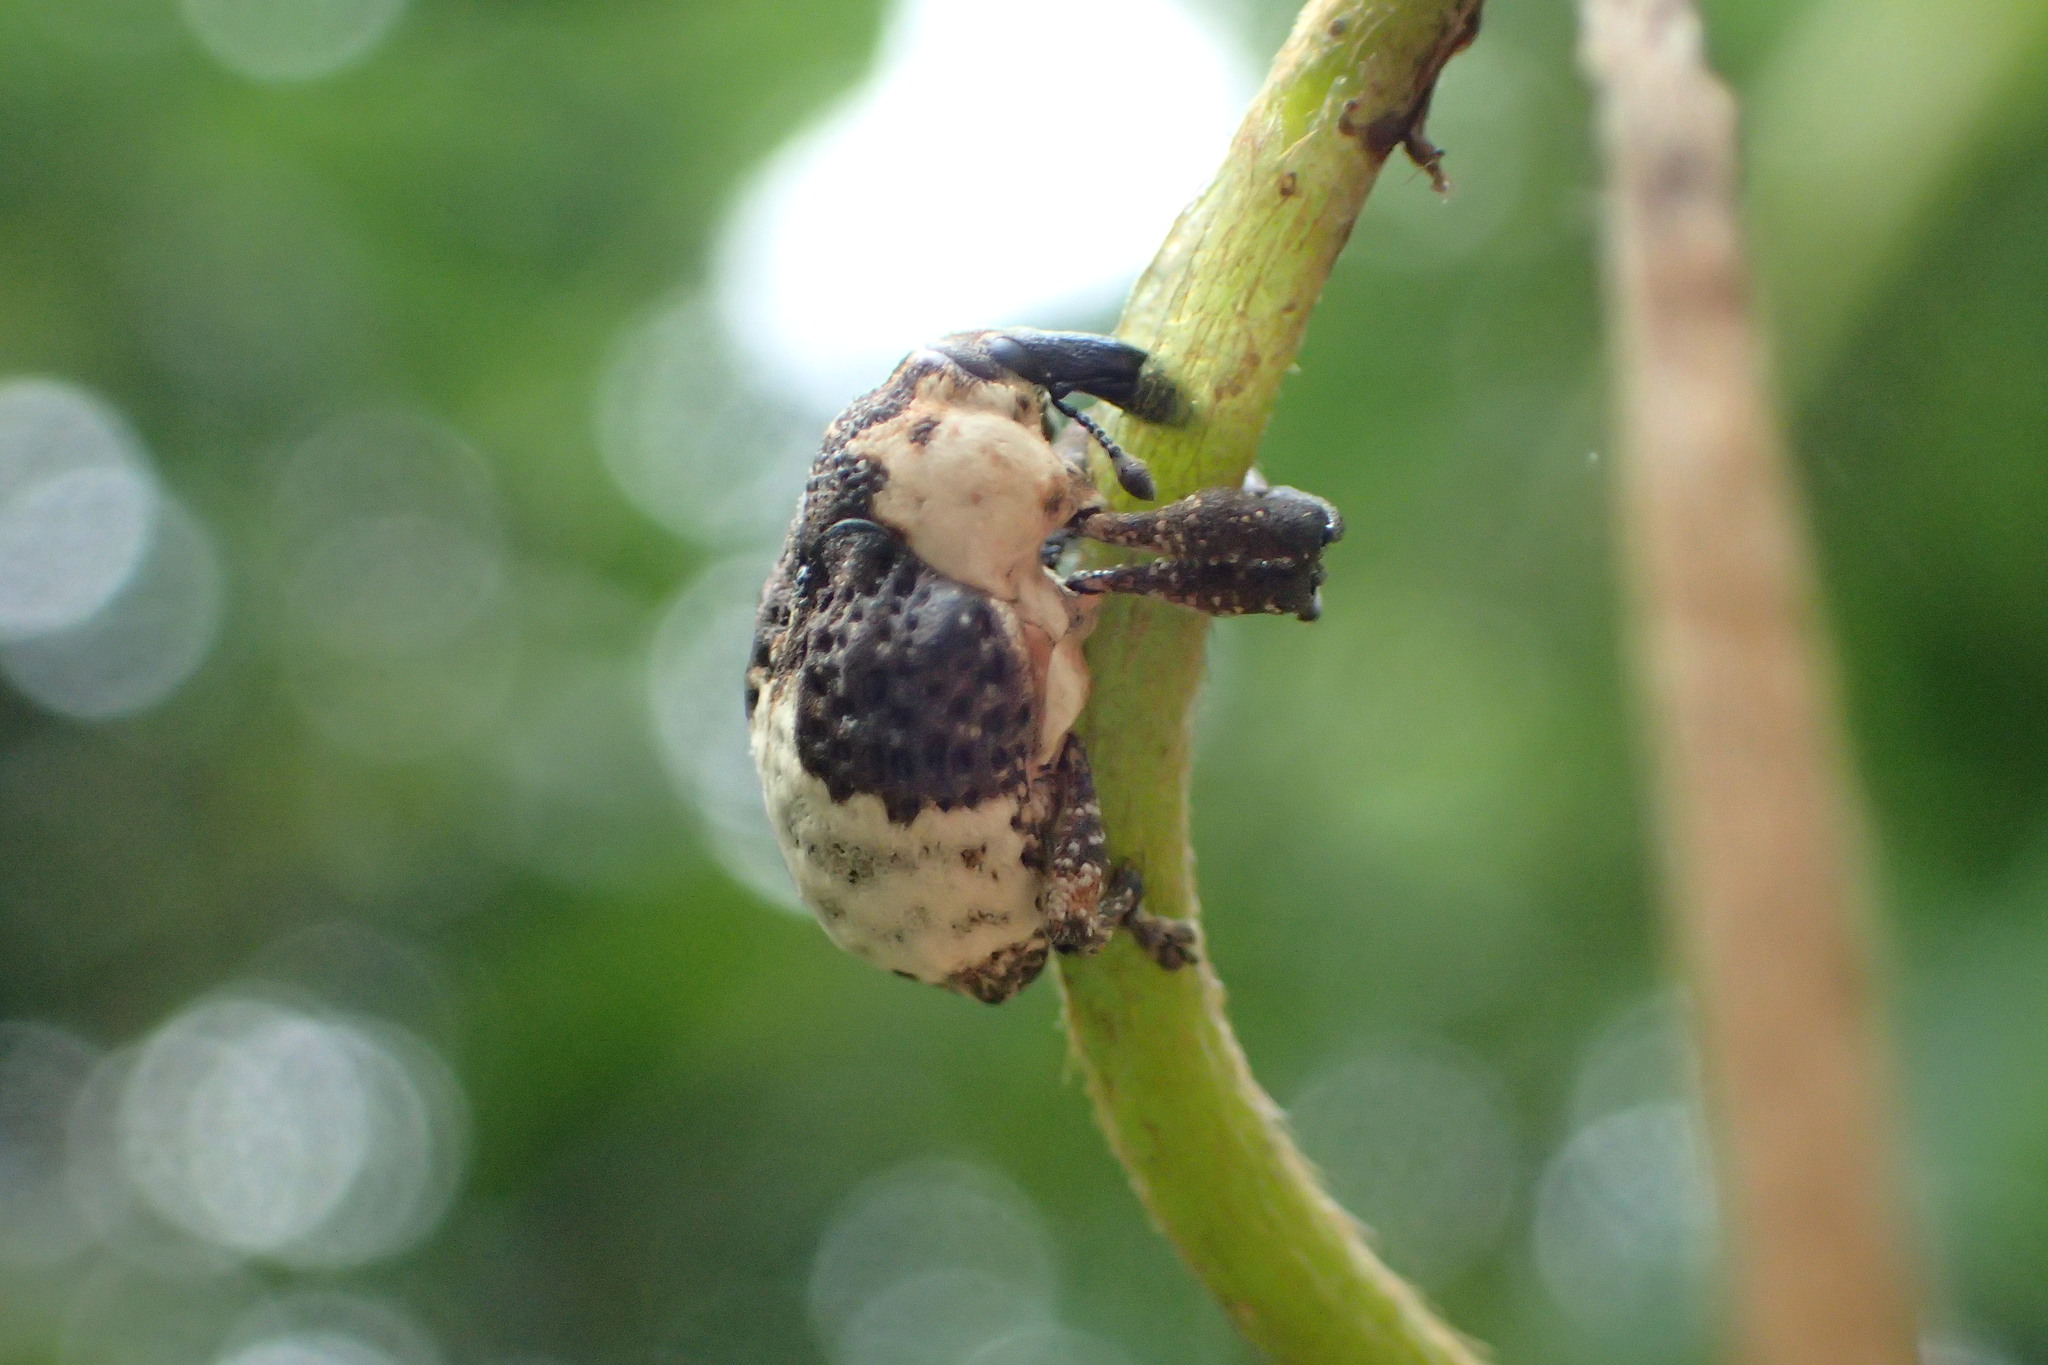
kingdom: Animalia
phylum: Arthropoda
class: Insecta
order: Coleoptera
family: Curculionidae
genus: Alcides
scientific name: Alcides trifidus
